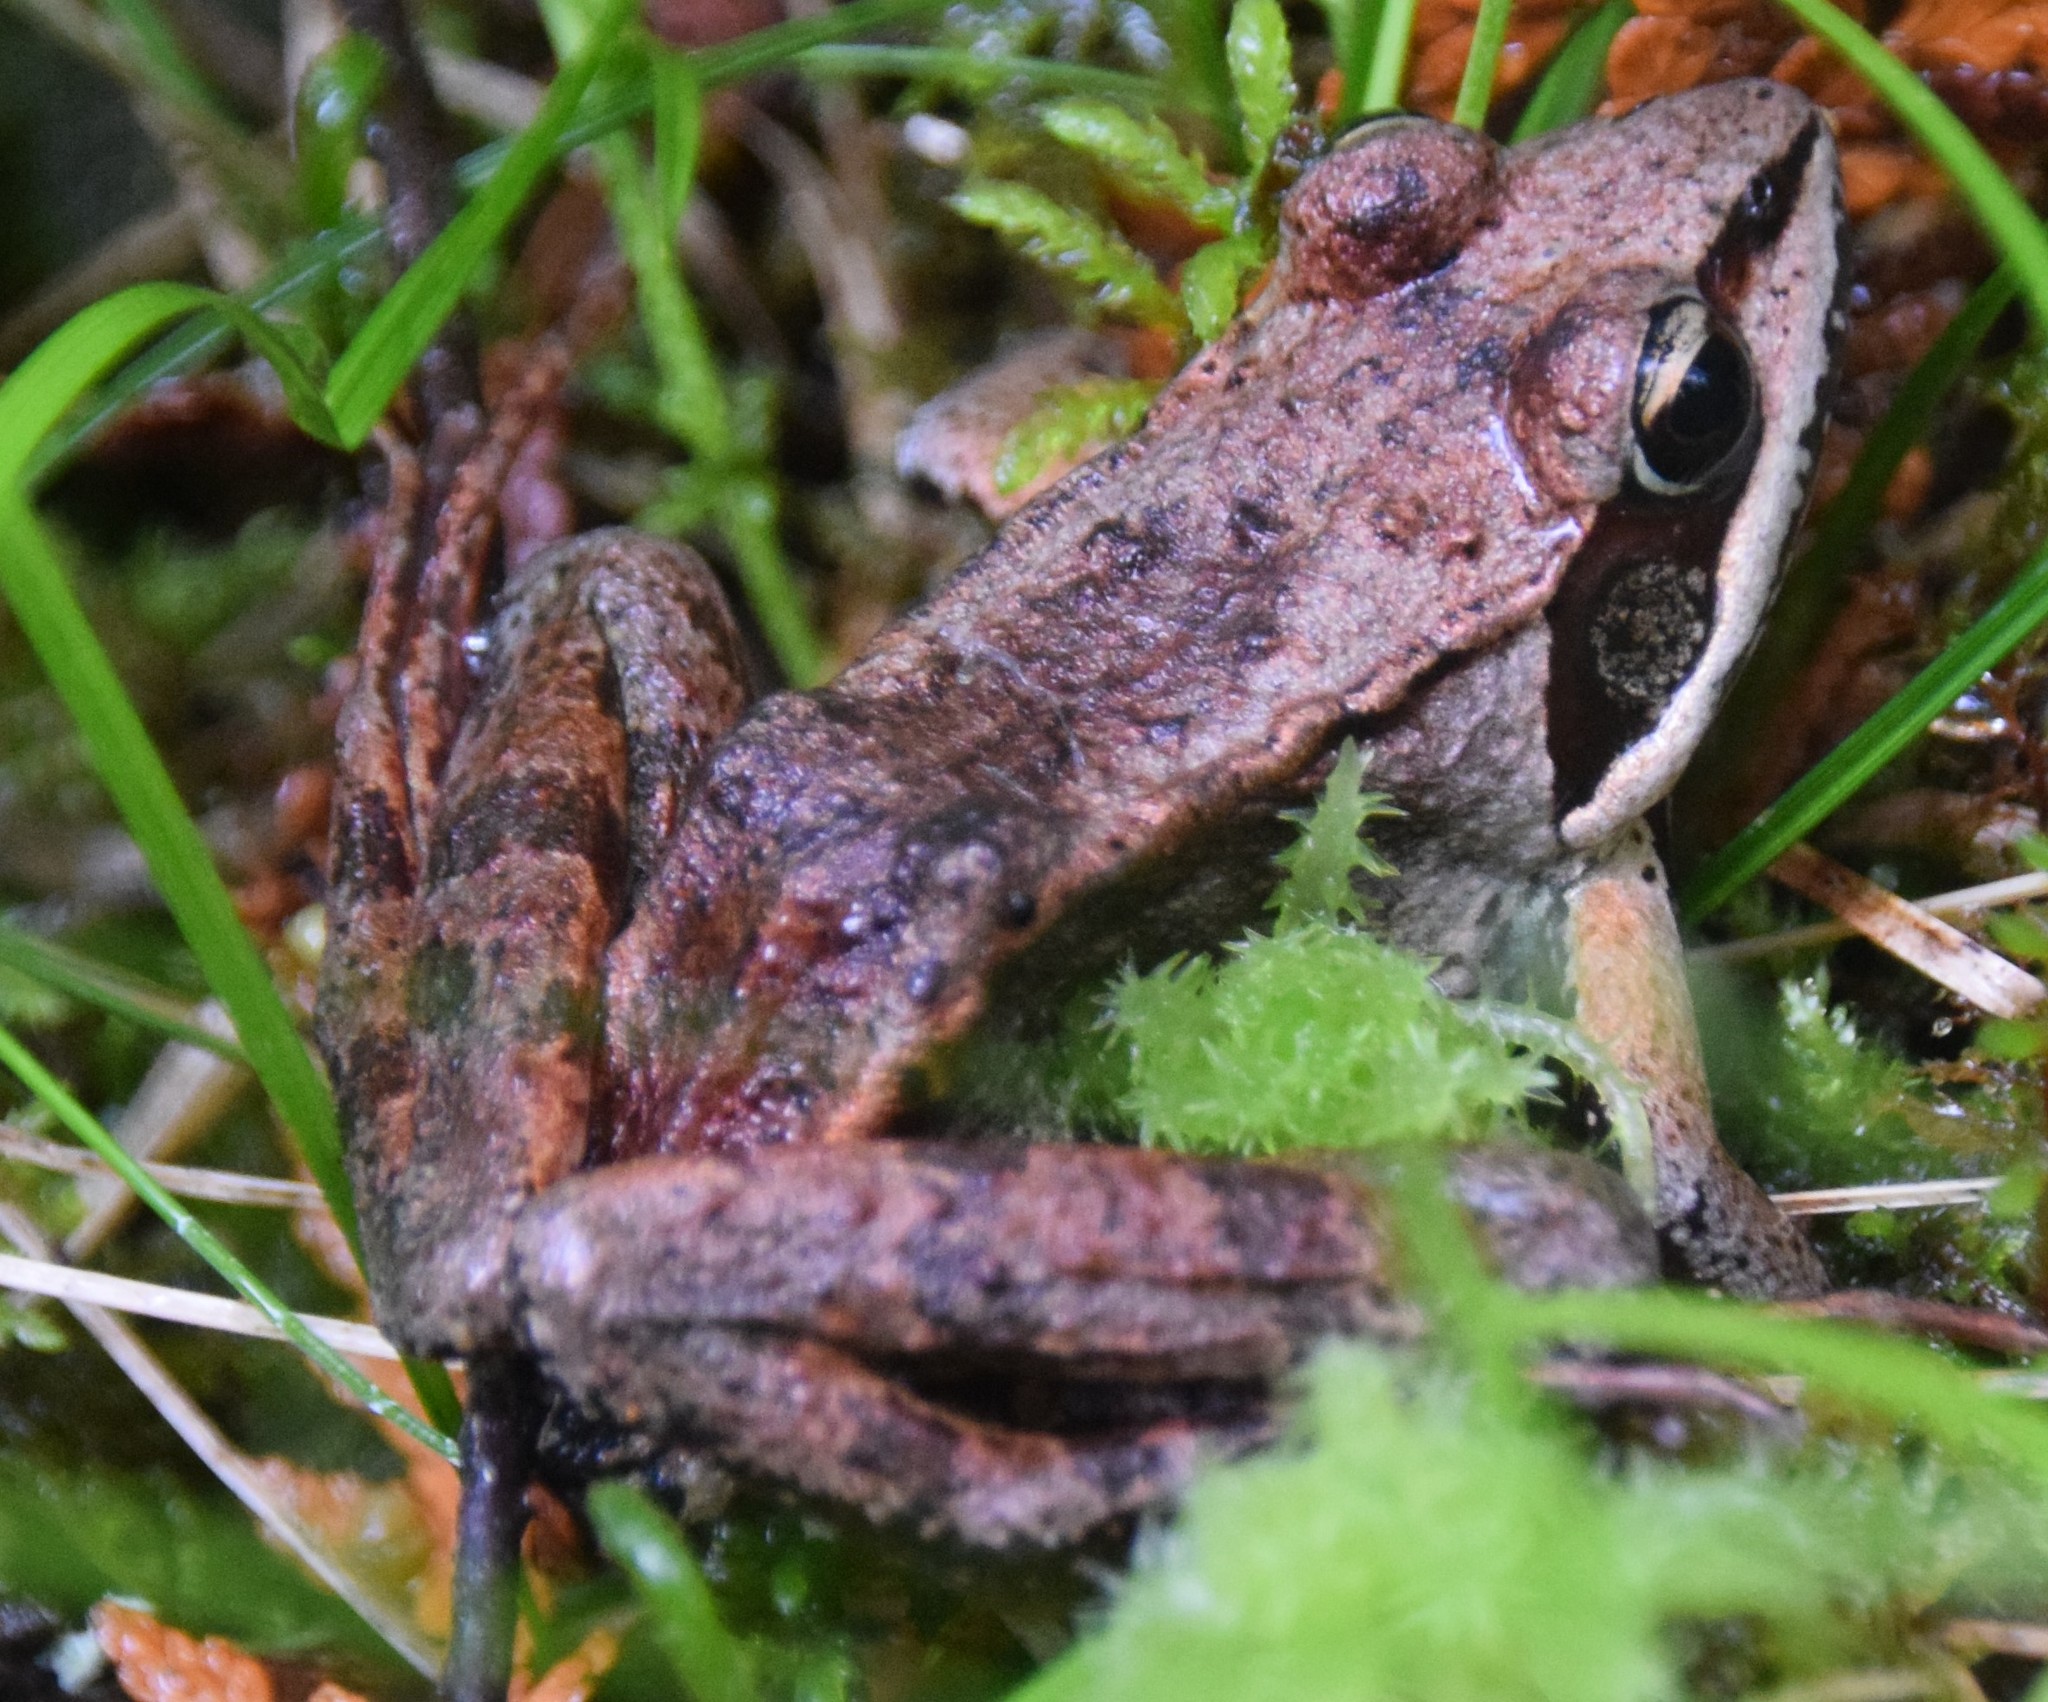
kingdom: Animalia
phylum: Chordata
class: Amphibia
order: Anura
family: Ranidae
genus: Lithobates
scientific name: Lithobates sylvaticus
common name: Wood frog
